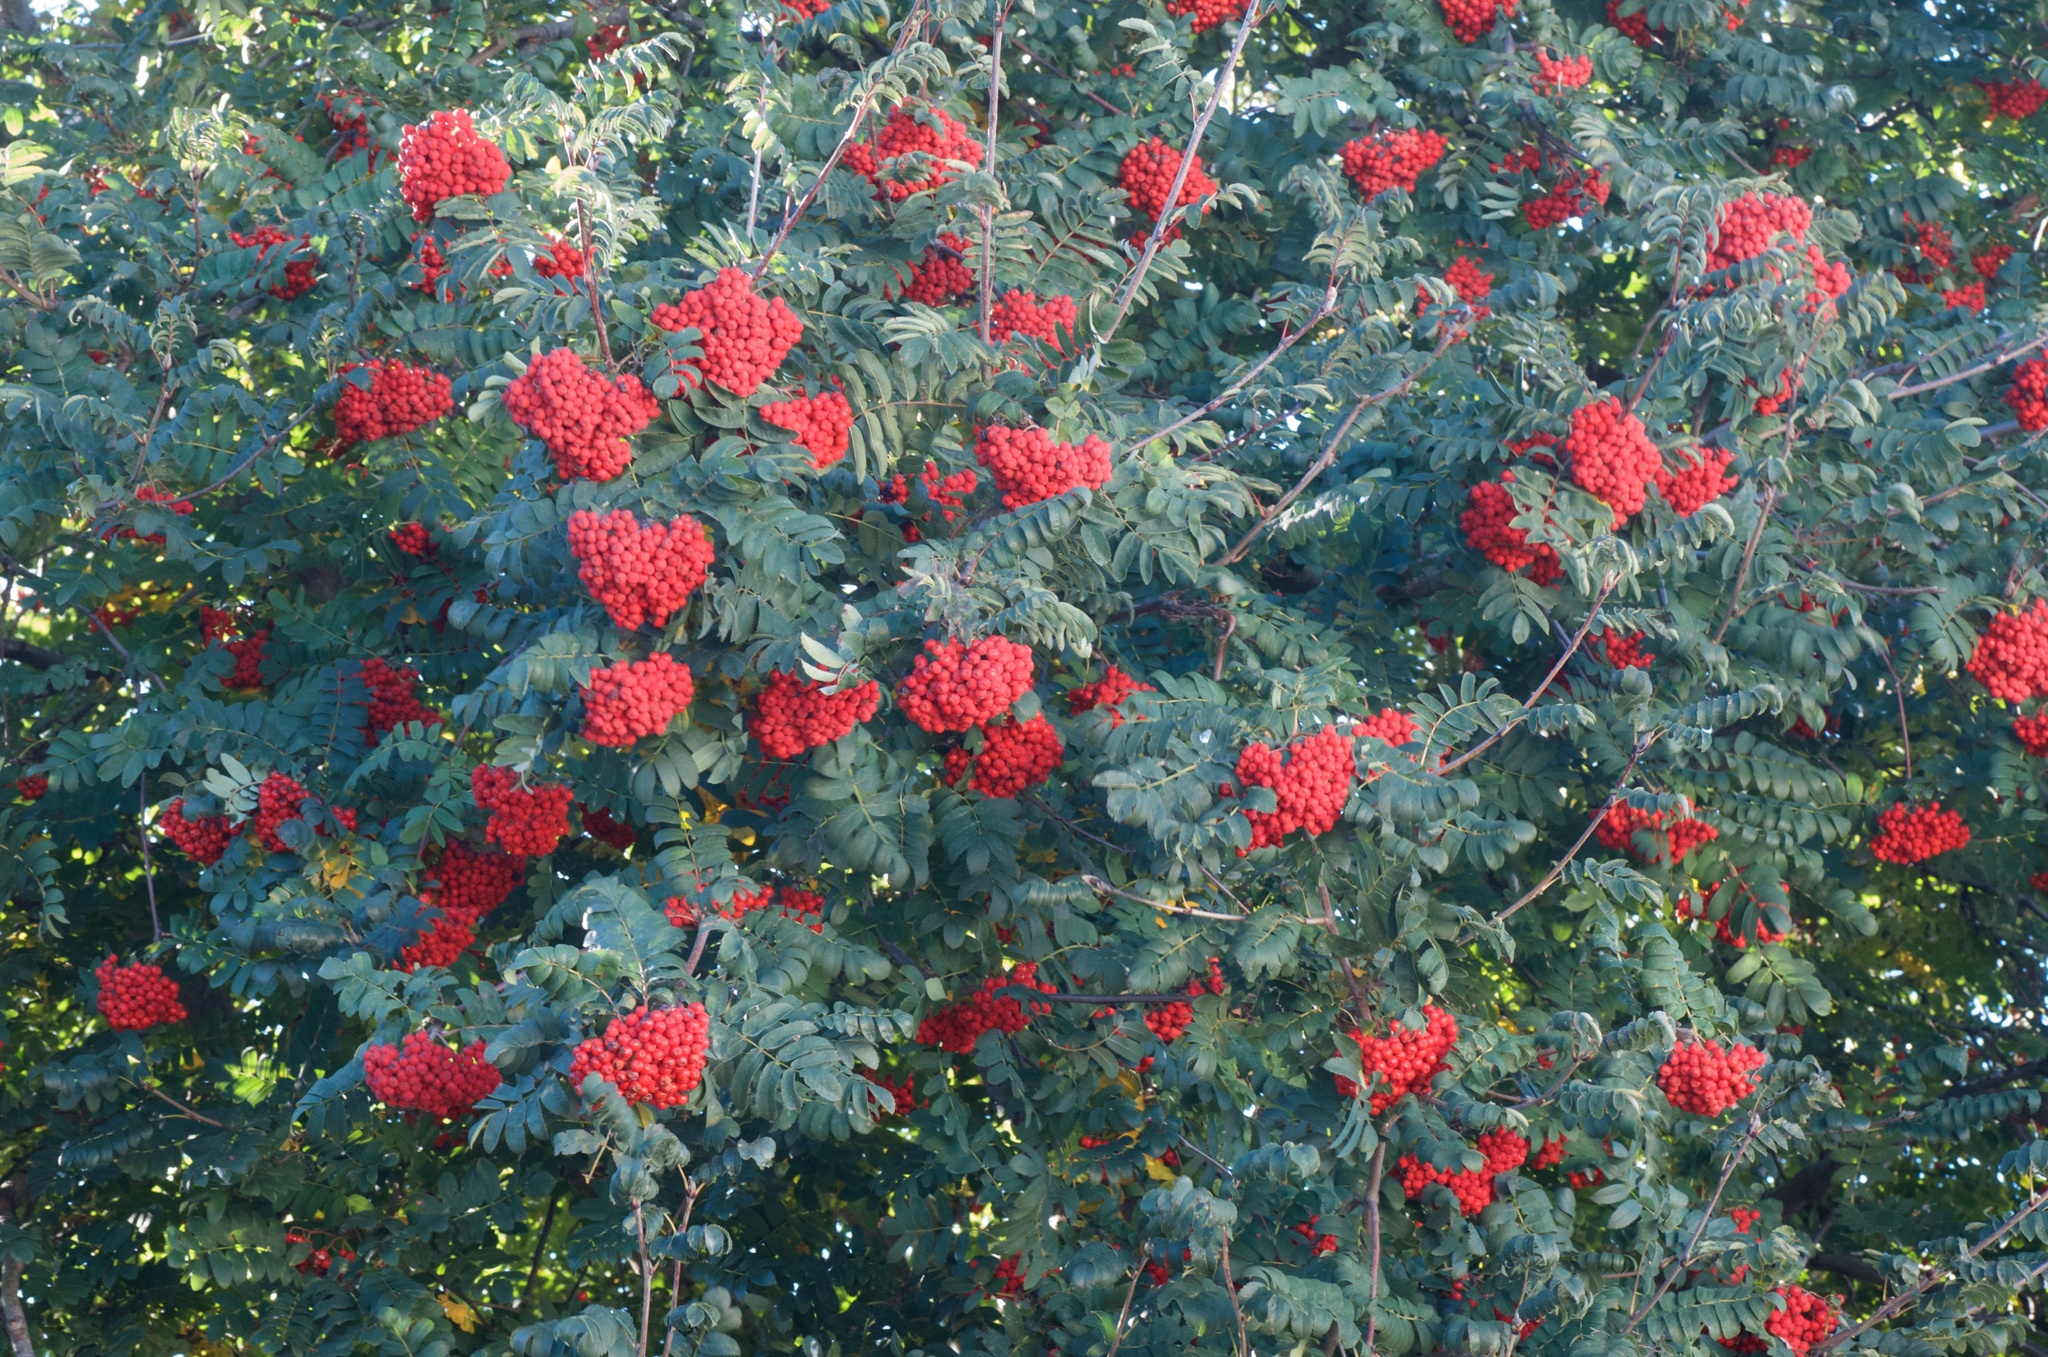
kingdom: Plantae
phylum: Tracheophyta
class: Magnoliopsida
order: Rosales
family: Rosaceae
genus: Sorbus
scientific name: Sorbus aucuparia
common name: Rowan
